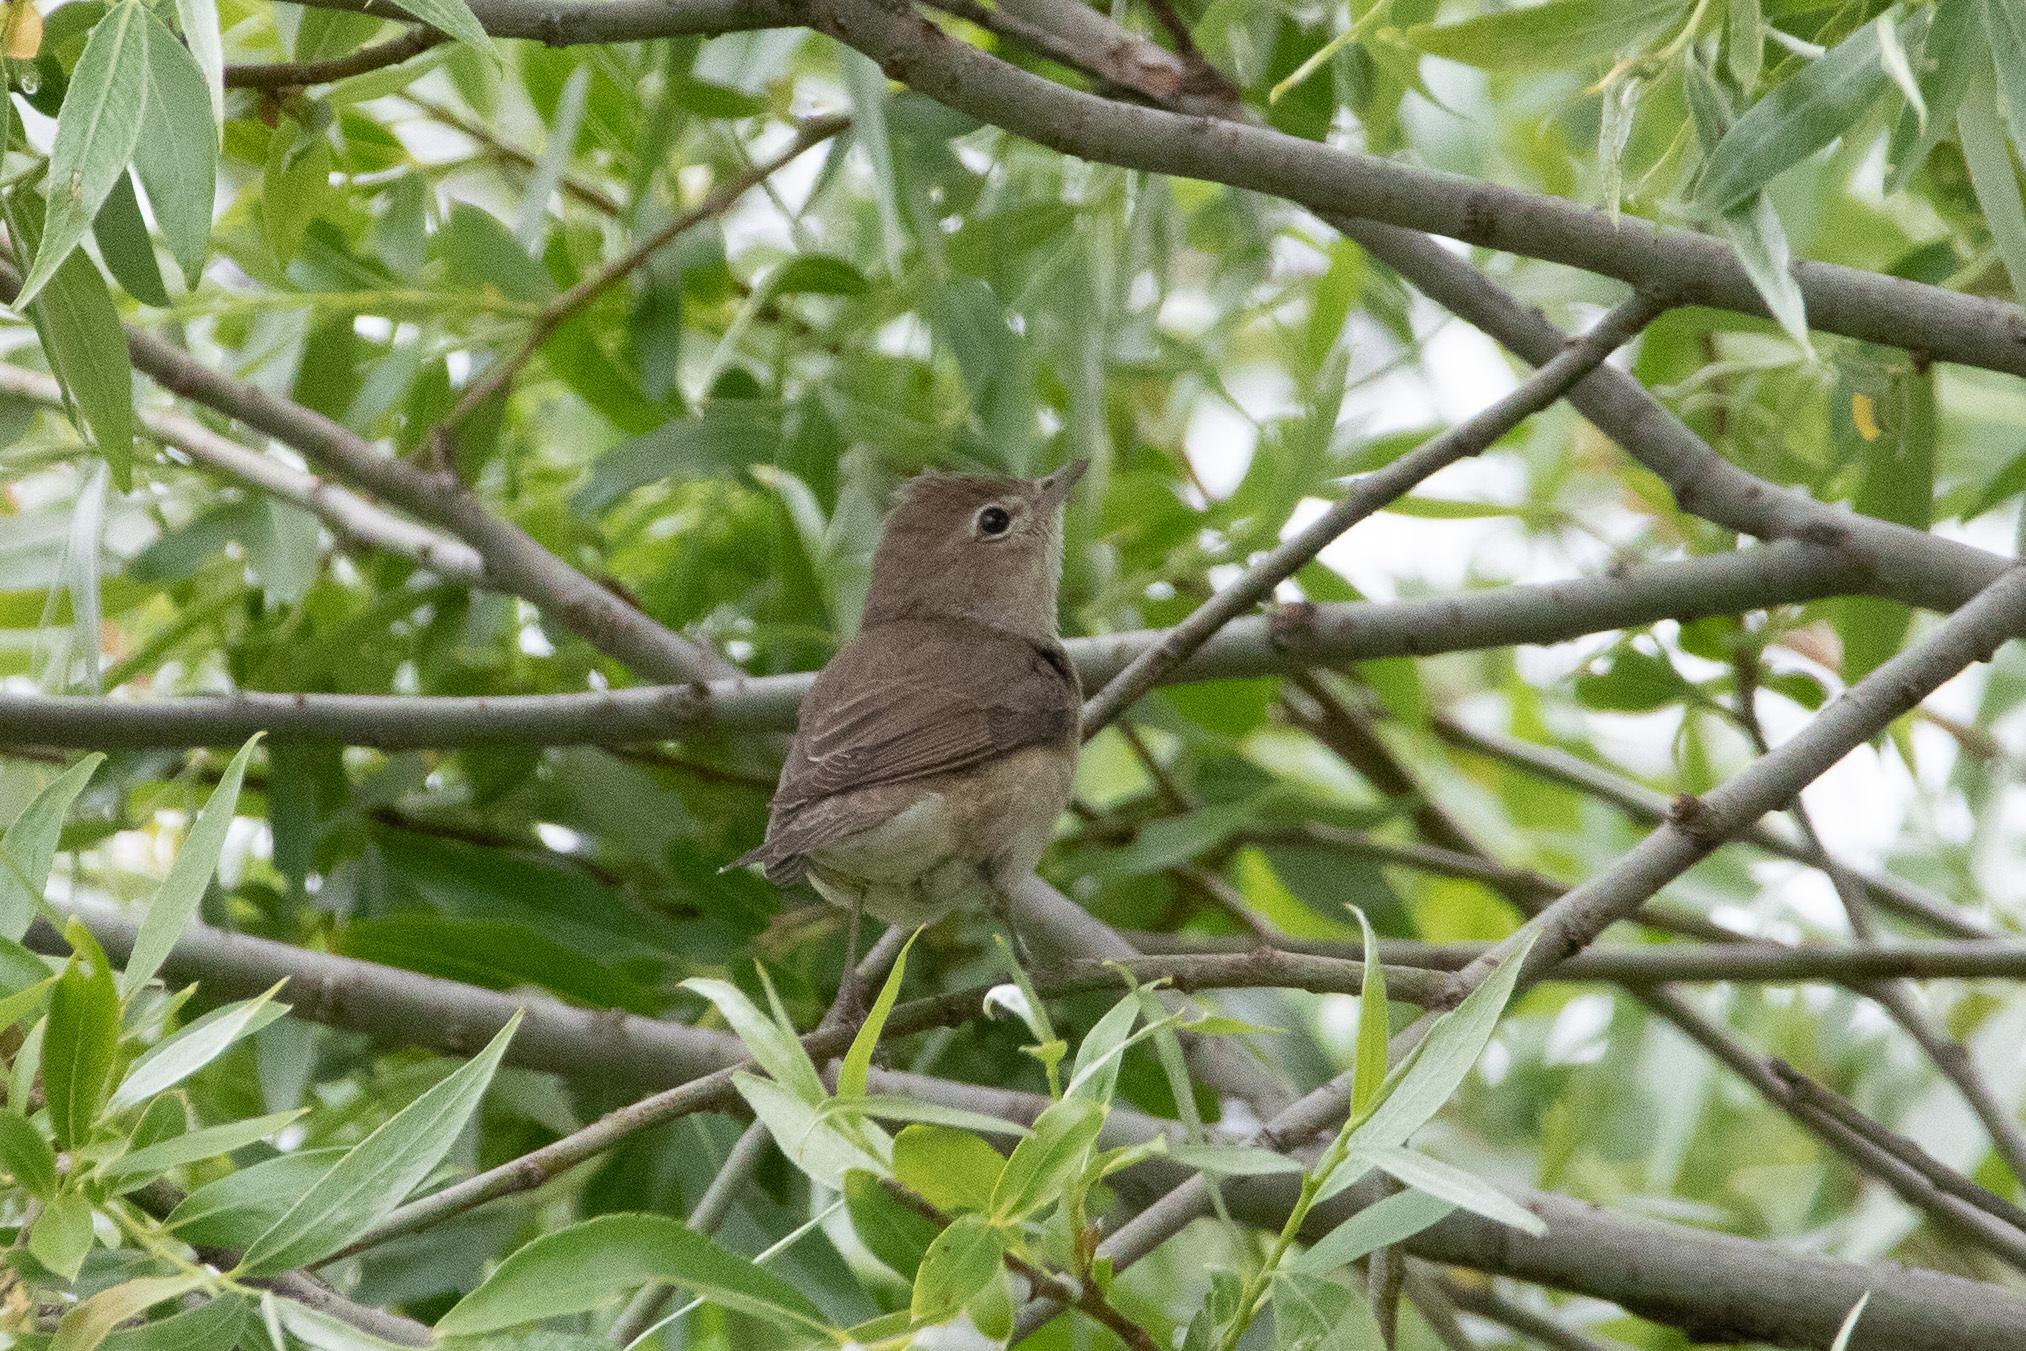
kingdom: Animalia
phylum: Chordata
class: Aves
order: Passeriformes
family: Sylviidae
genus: Sylvia
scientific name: Sylvia borin
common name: Garden warbler
